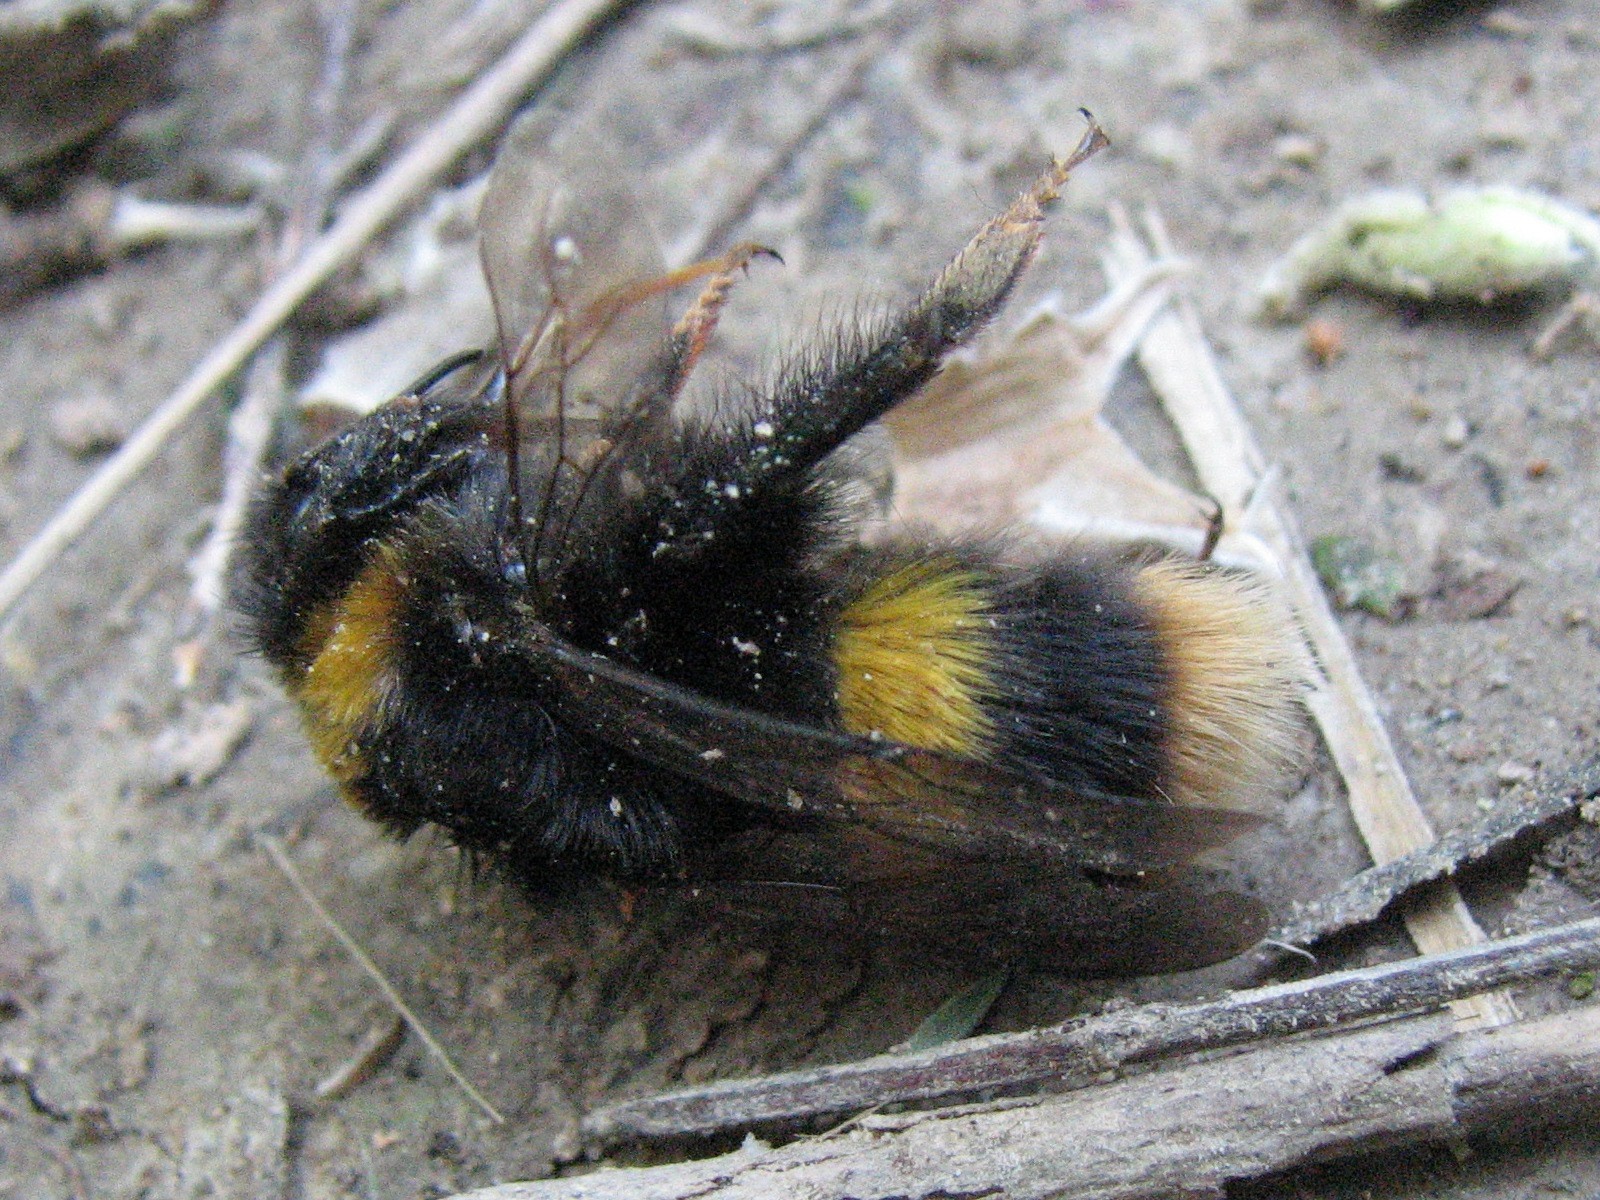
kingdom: Animalia
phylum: Arthropoda
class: Insecta
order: Hymenoptera
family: Apidae
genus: Bombus
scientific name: Bombus terrestris
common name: Buff-tailed bumblebee
